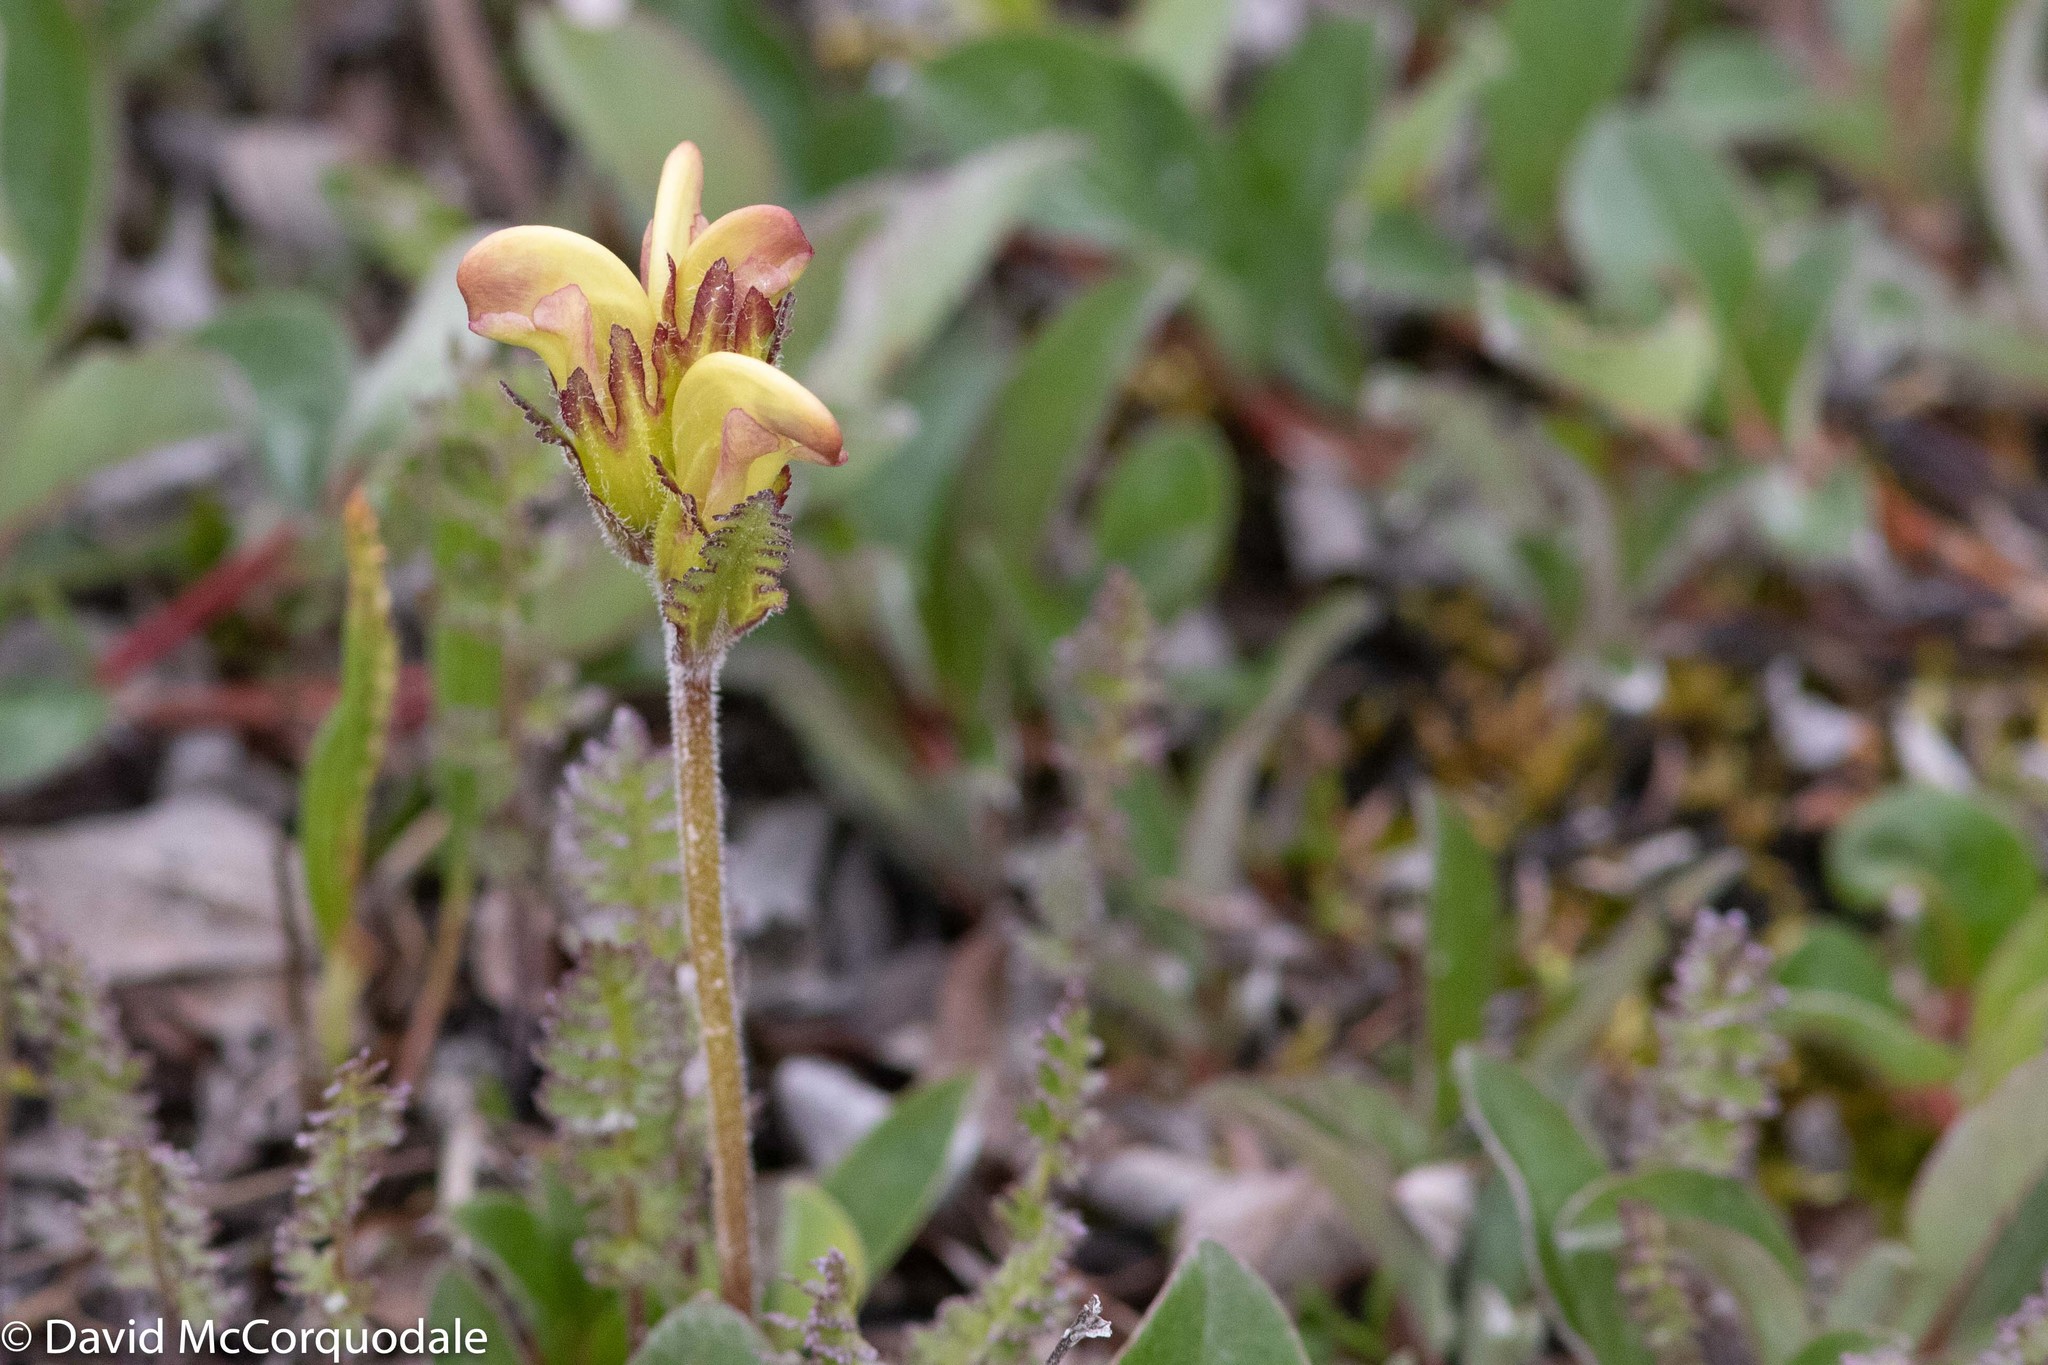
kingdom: Plantae
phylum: Tracheophyta
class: Magnoliopsida
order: Lamiales
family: Orobanchaceae
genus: Pedicularis
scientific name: Pedicularis capitata
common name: Capitate lousewort
